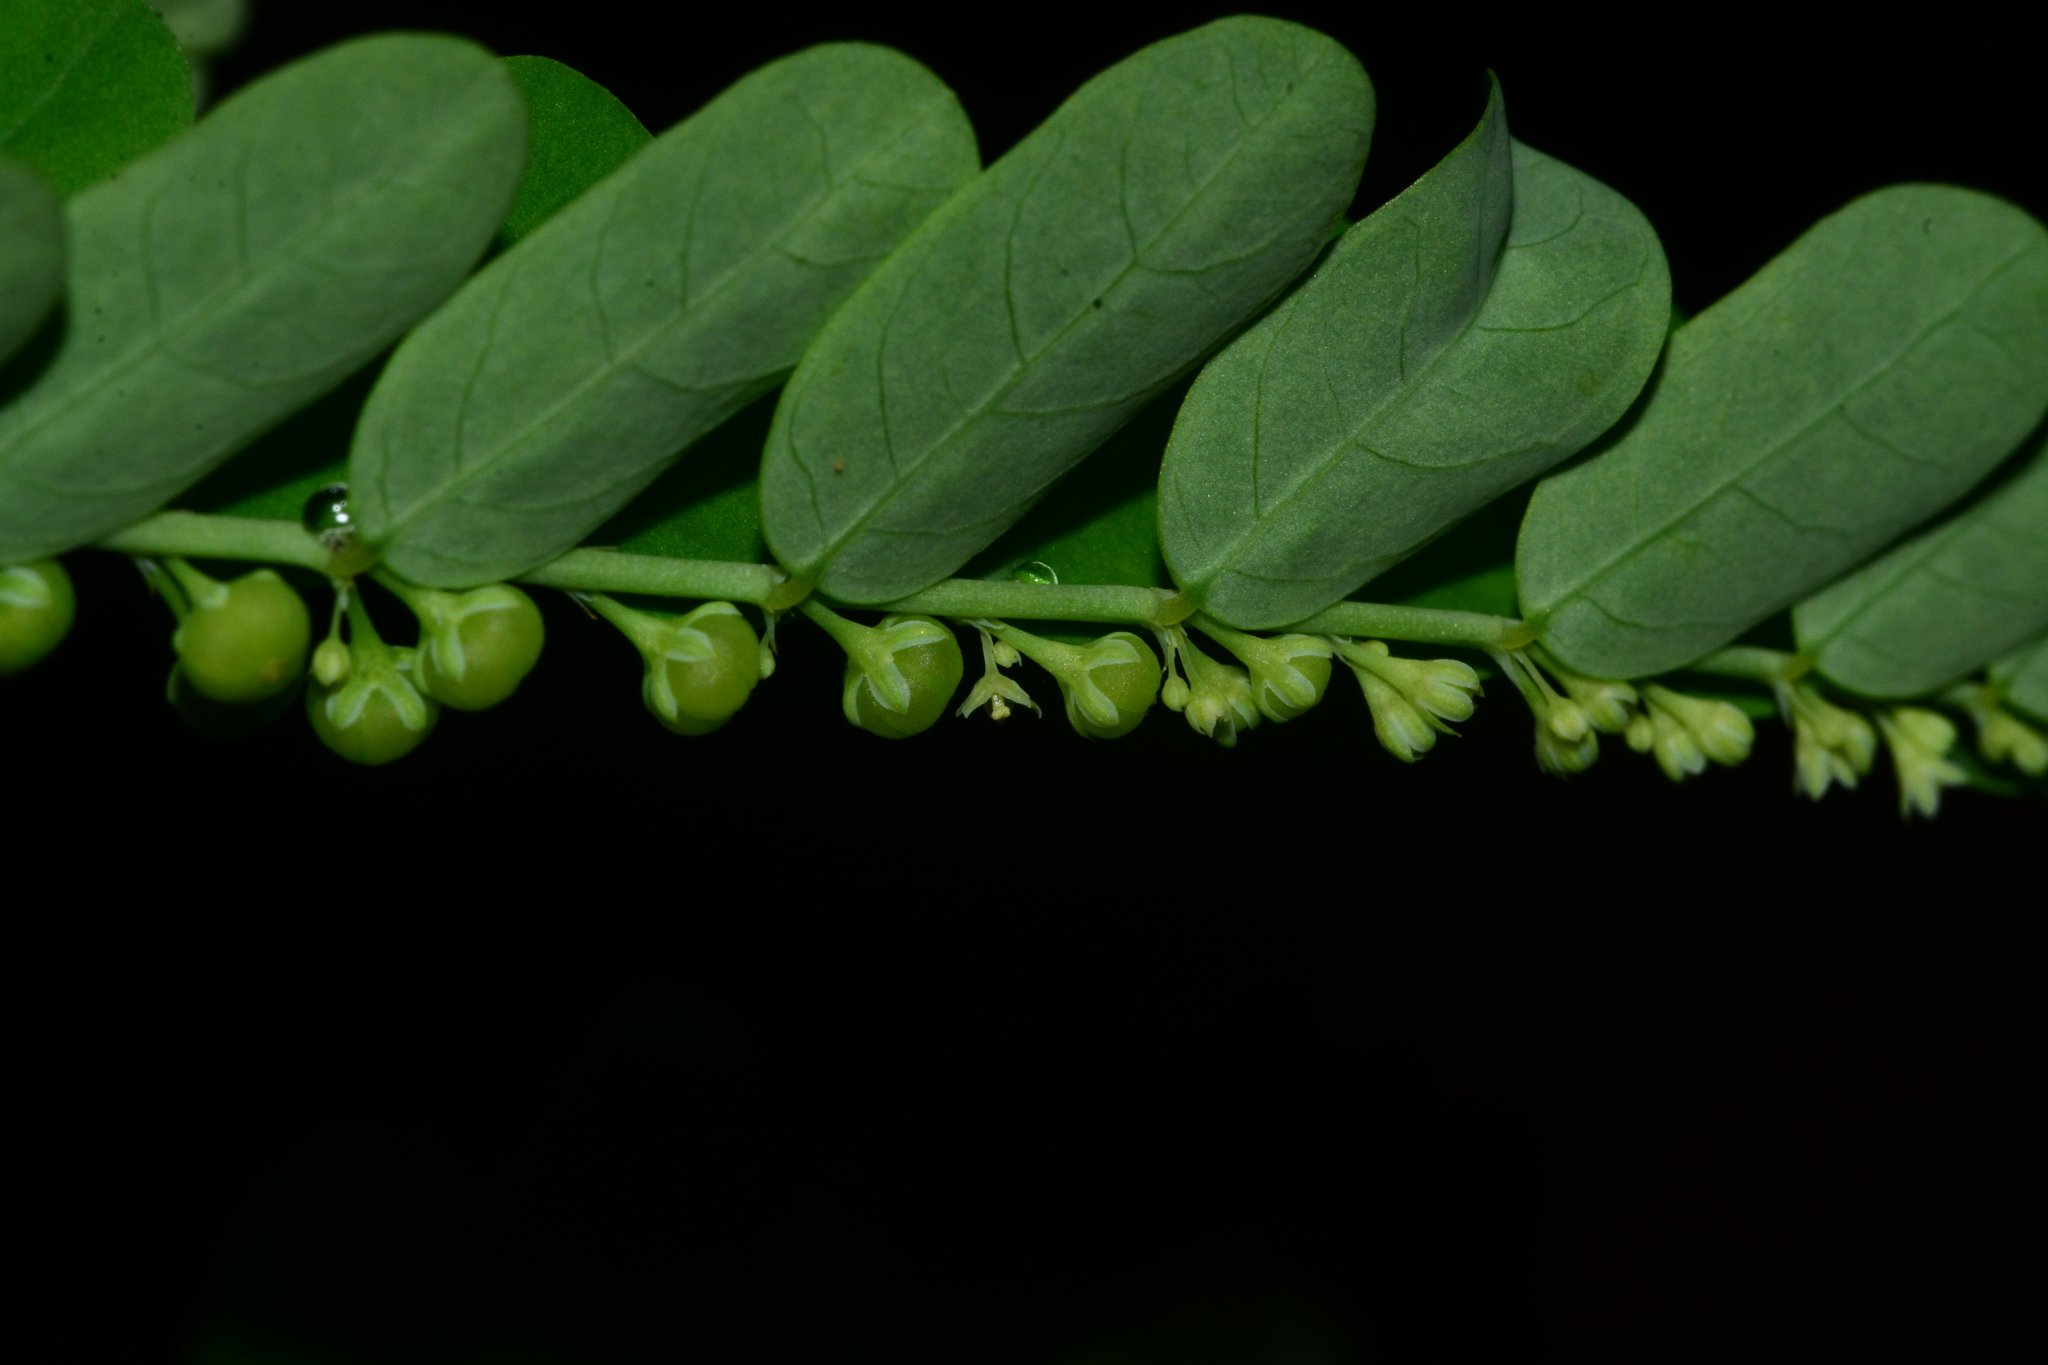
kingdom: Plantae
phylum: Tracheophyta
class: Magnoliopsida
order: Malpighiales
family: Phyllanthaceae
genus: Phyllanthus
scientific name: Phyllanthus amarus
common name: Carry me seed
